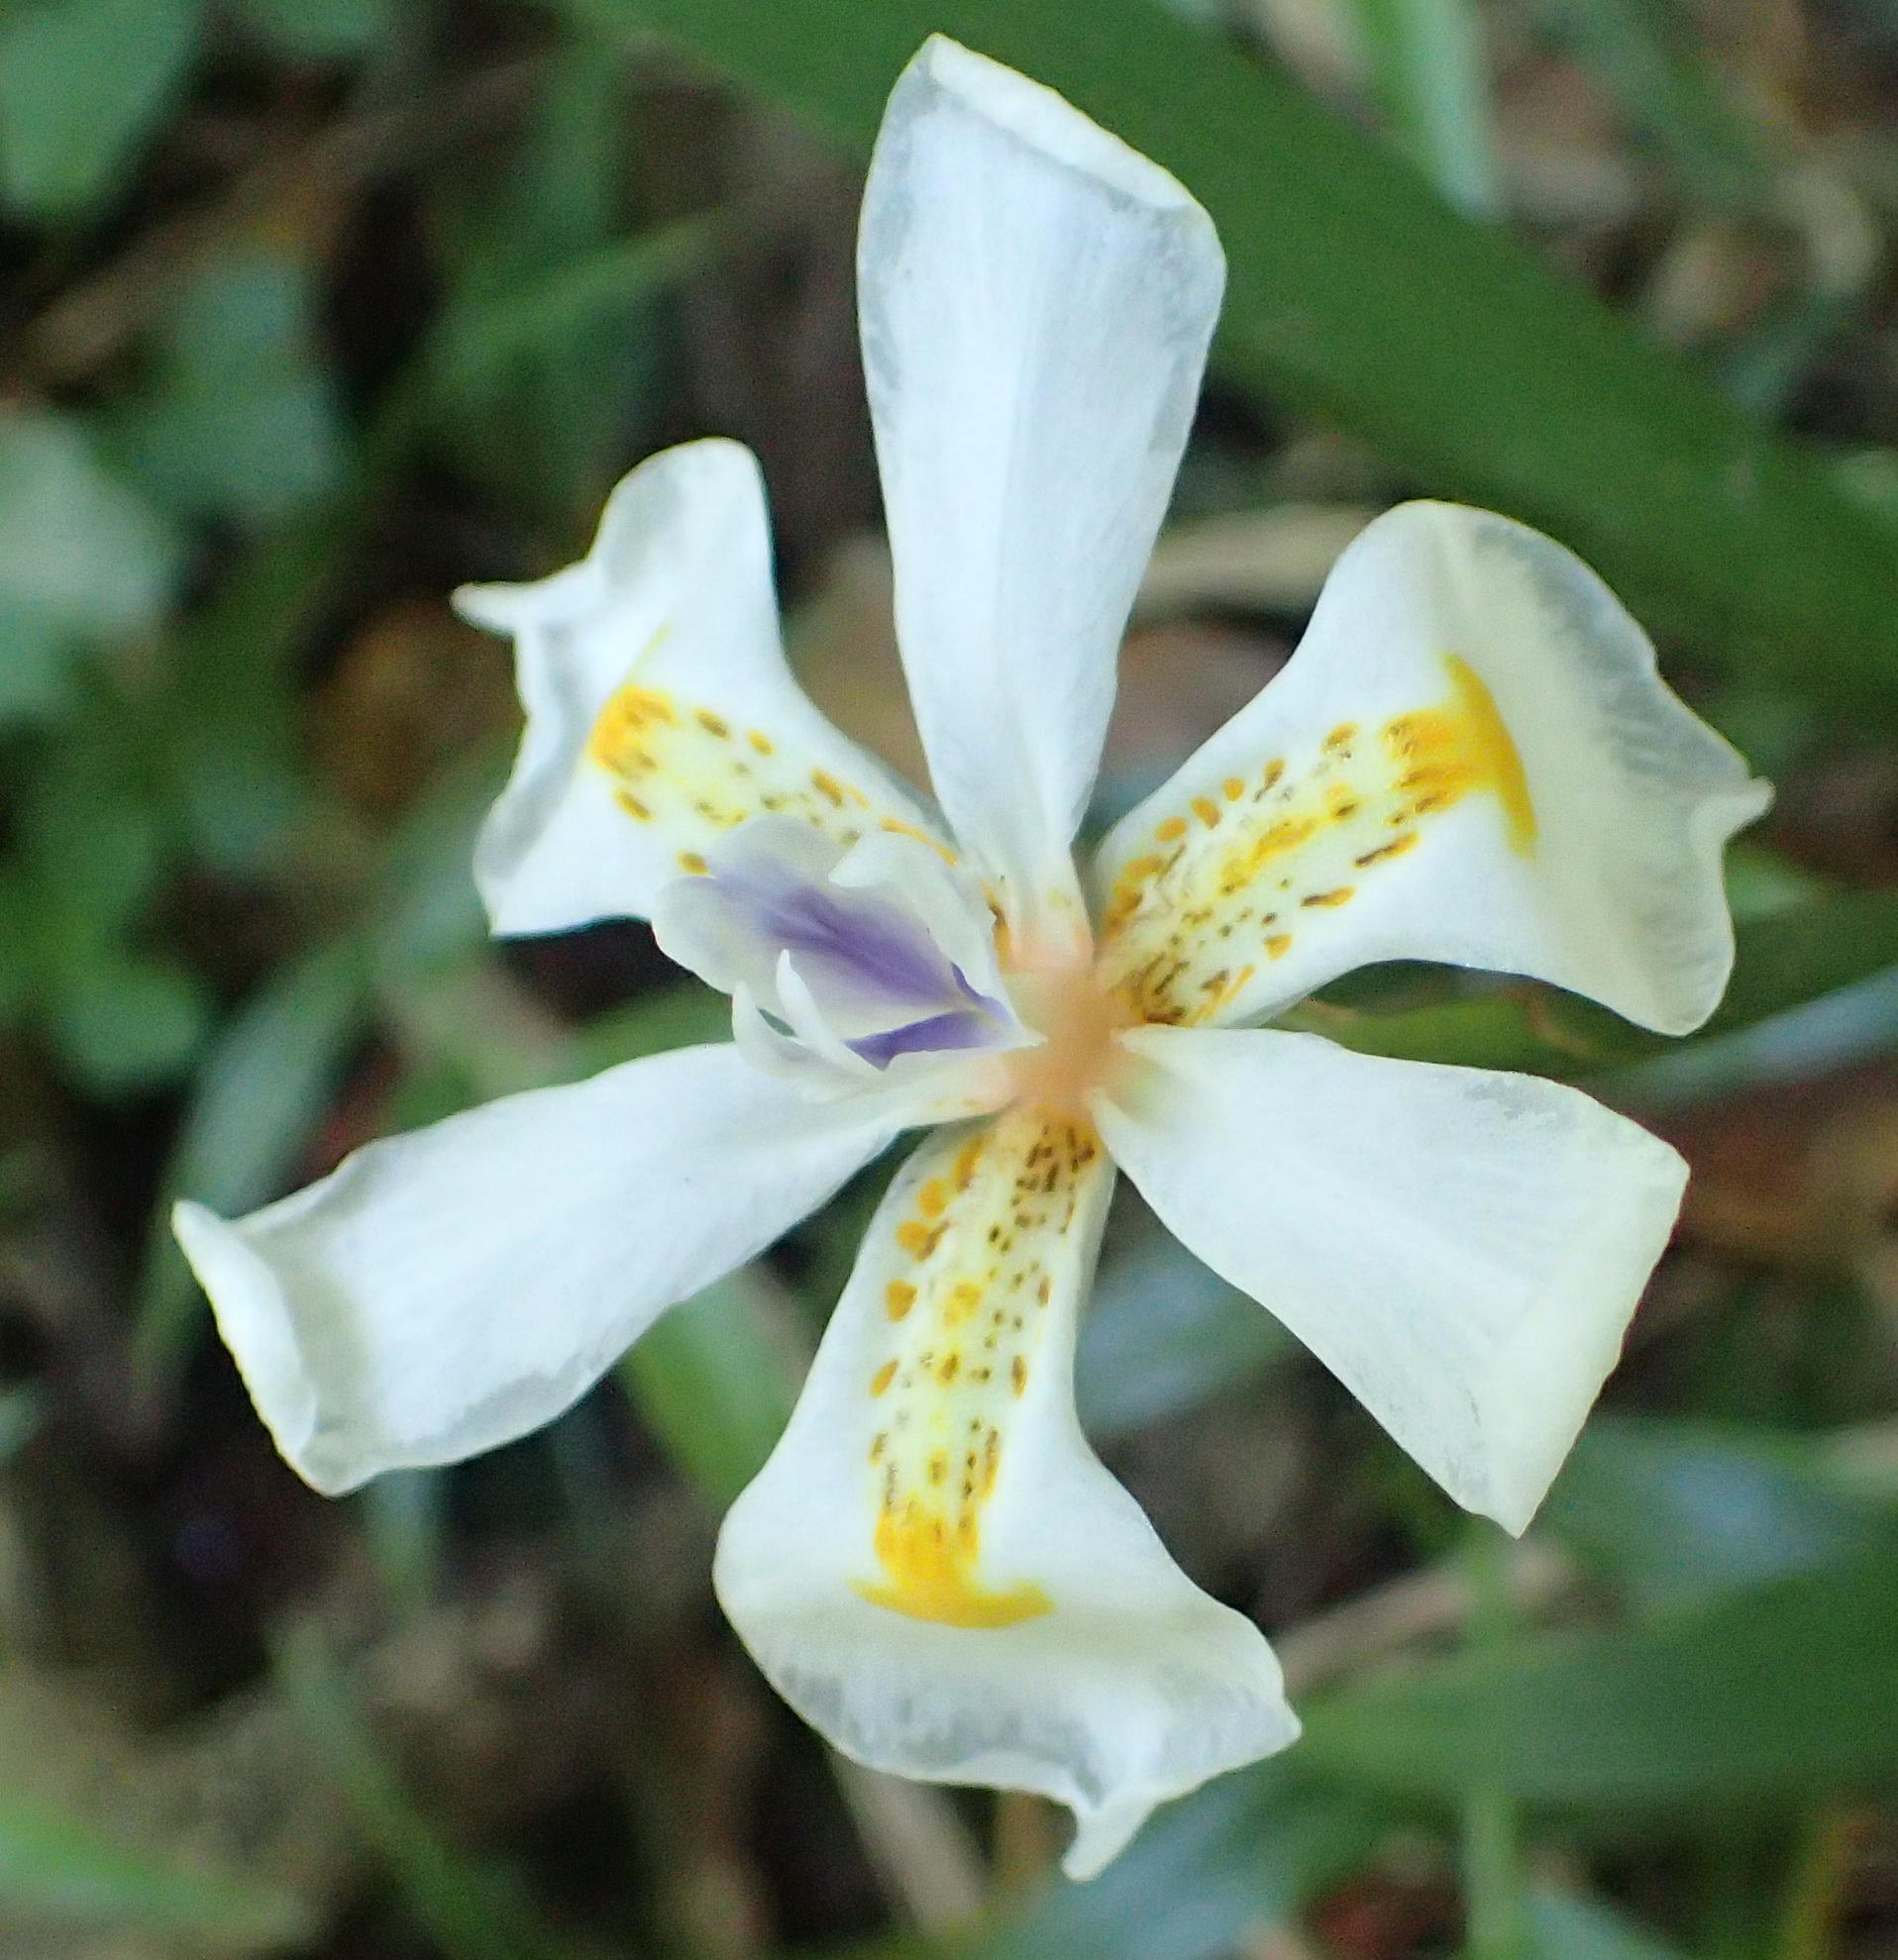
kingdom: Plantae
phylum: Tracheophyta
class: Liliopsida
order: Asparagales
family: Iridaceae
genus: Dietes
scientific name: Dietes iridioides
